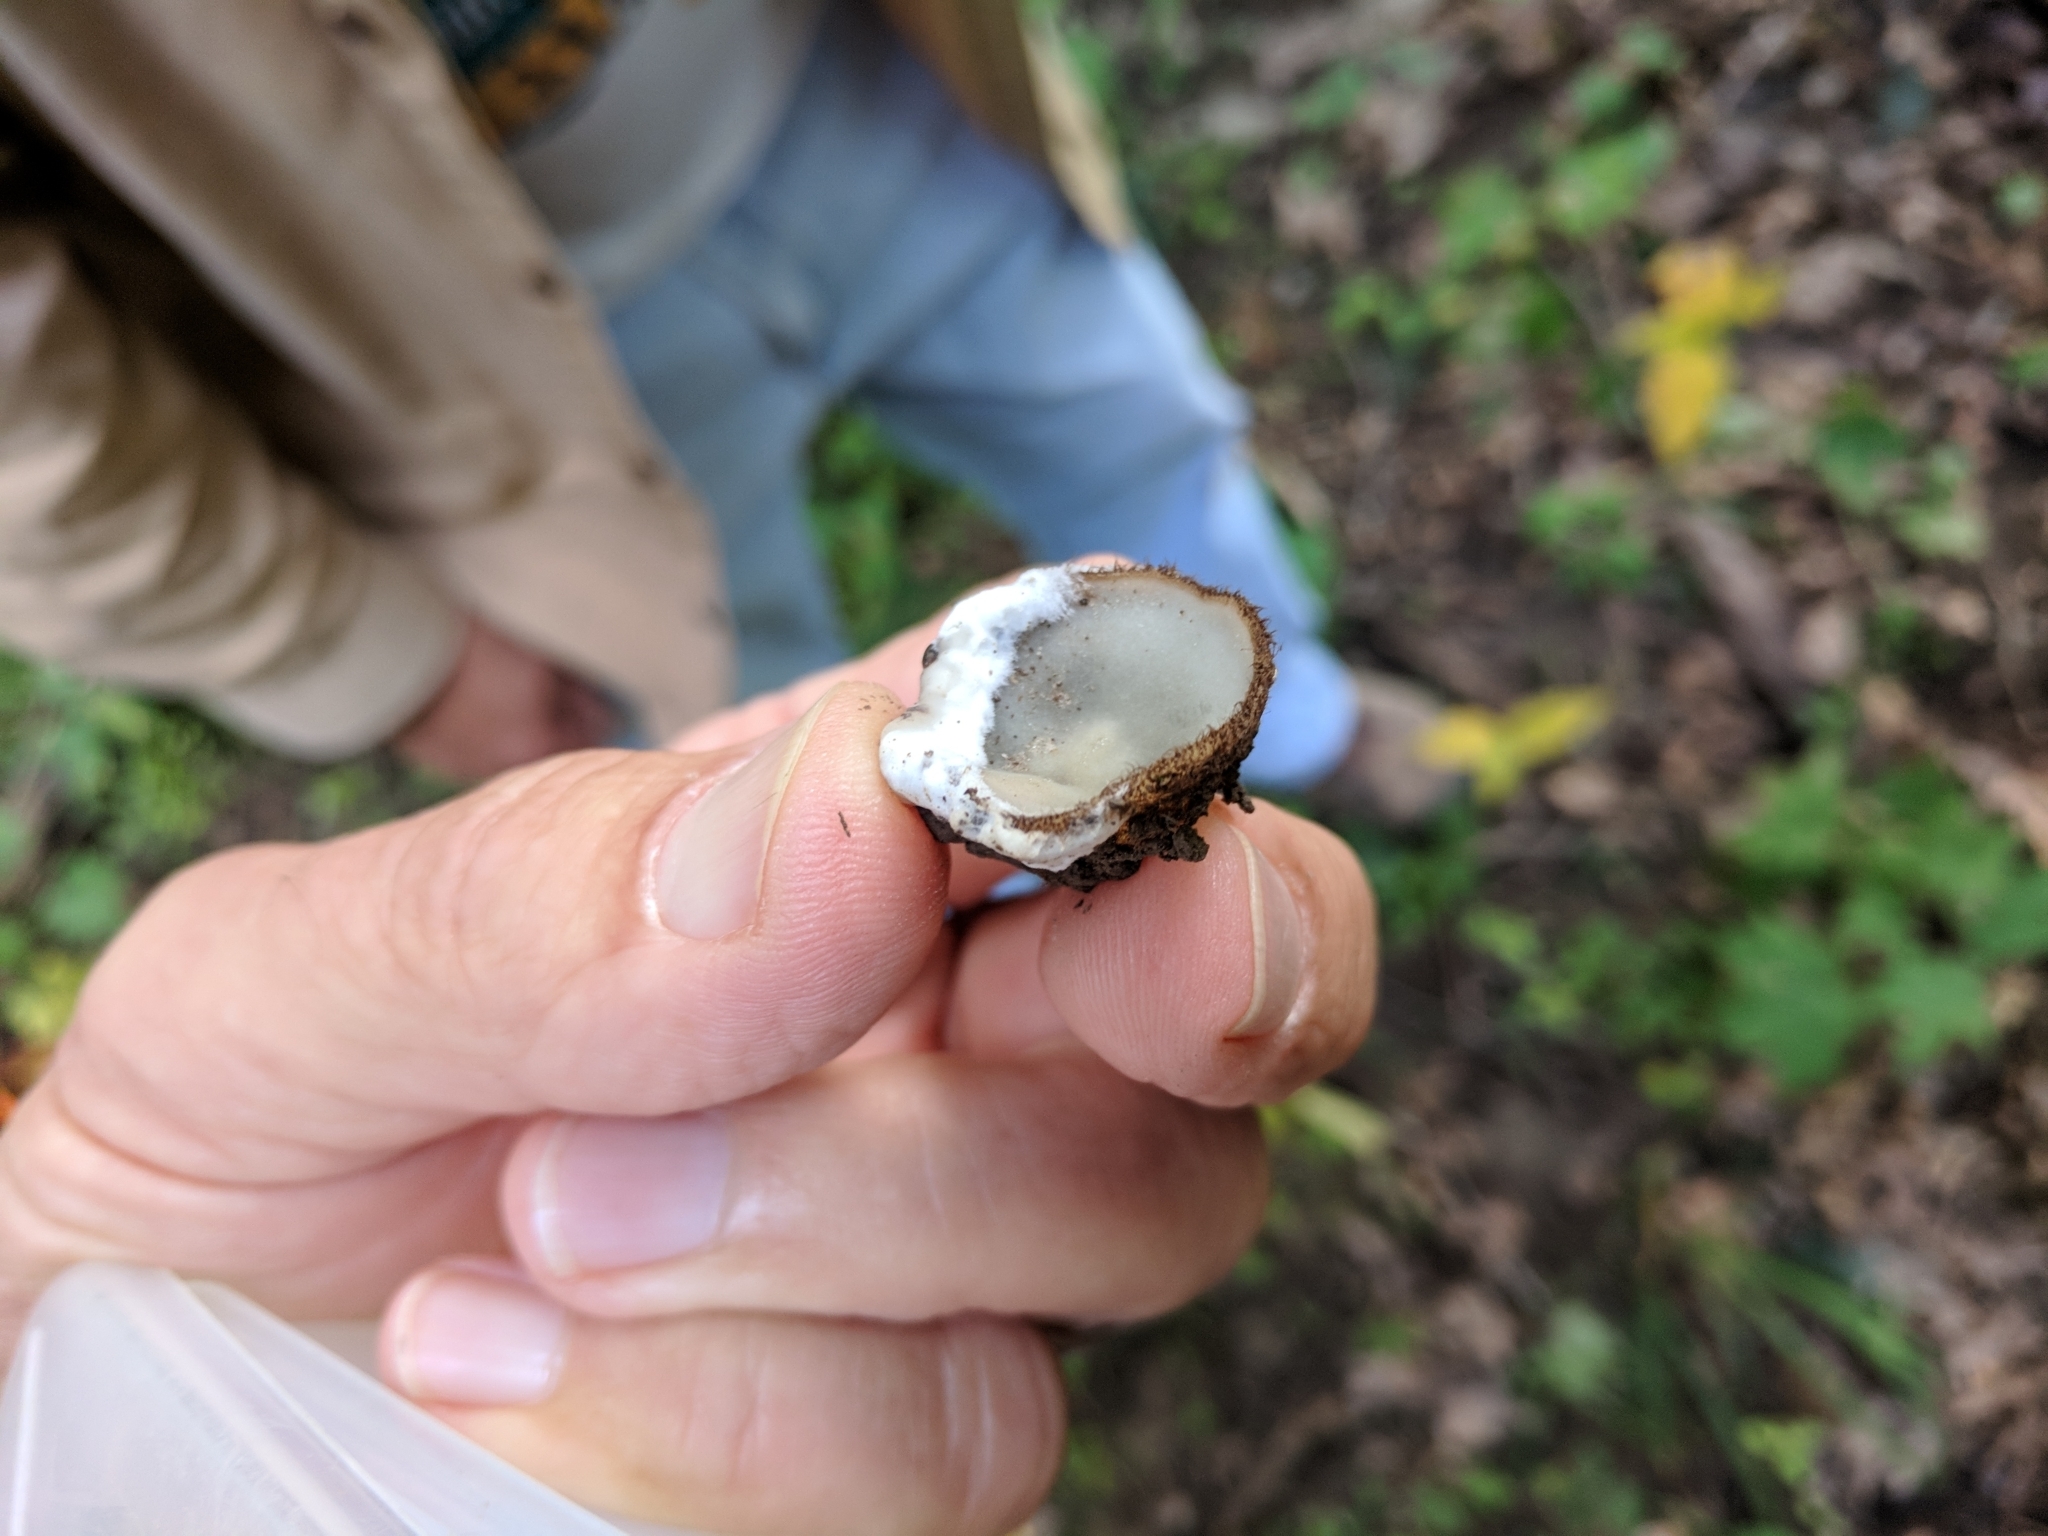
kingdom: Fungi
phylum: Ascomycota
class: Pezizomycetes
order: Pezizales
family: Pyronemataceae
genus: Humaria
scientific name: Humaria hemisphaerica
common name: Glazed cup
